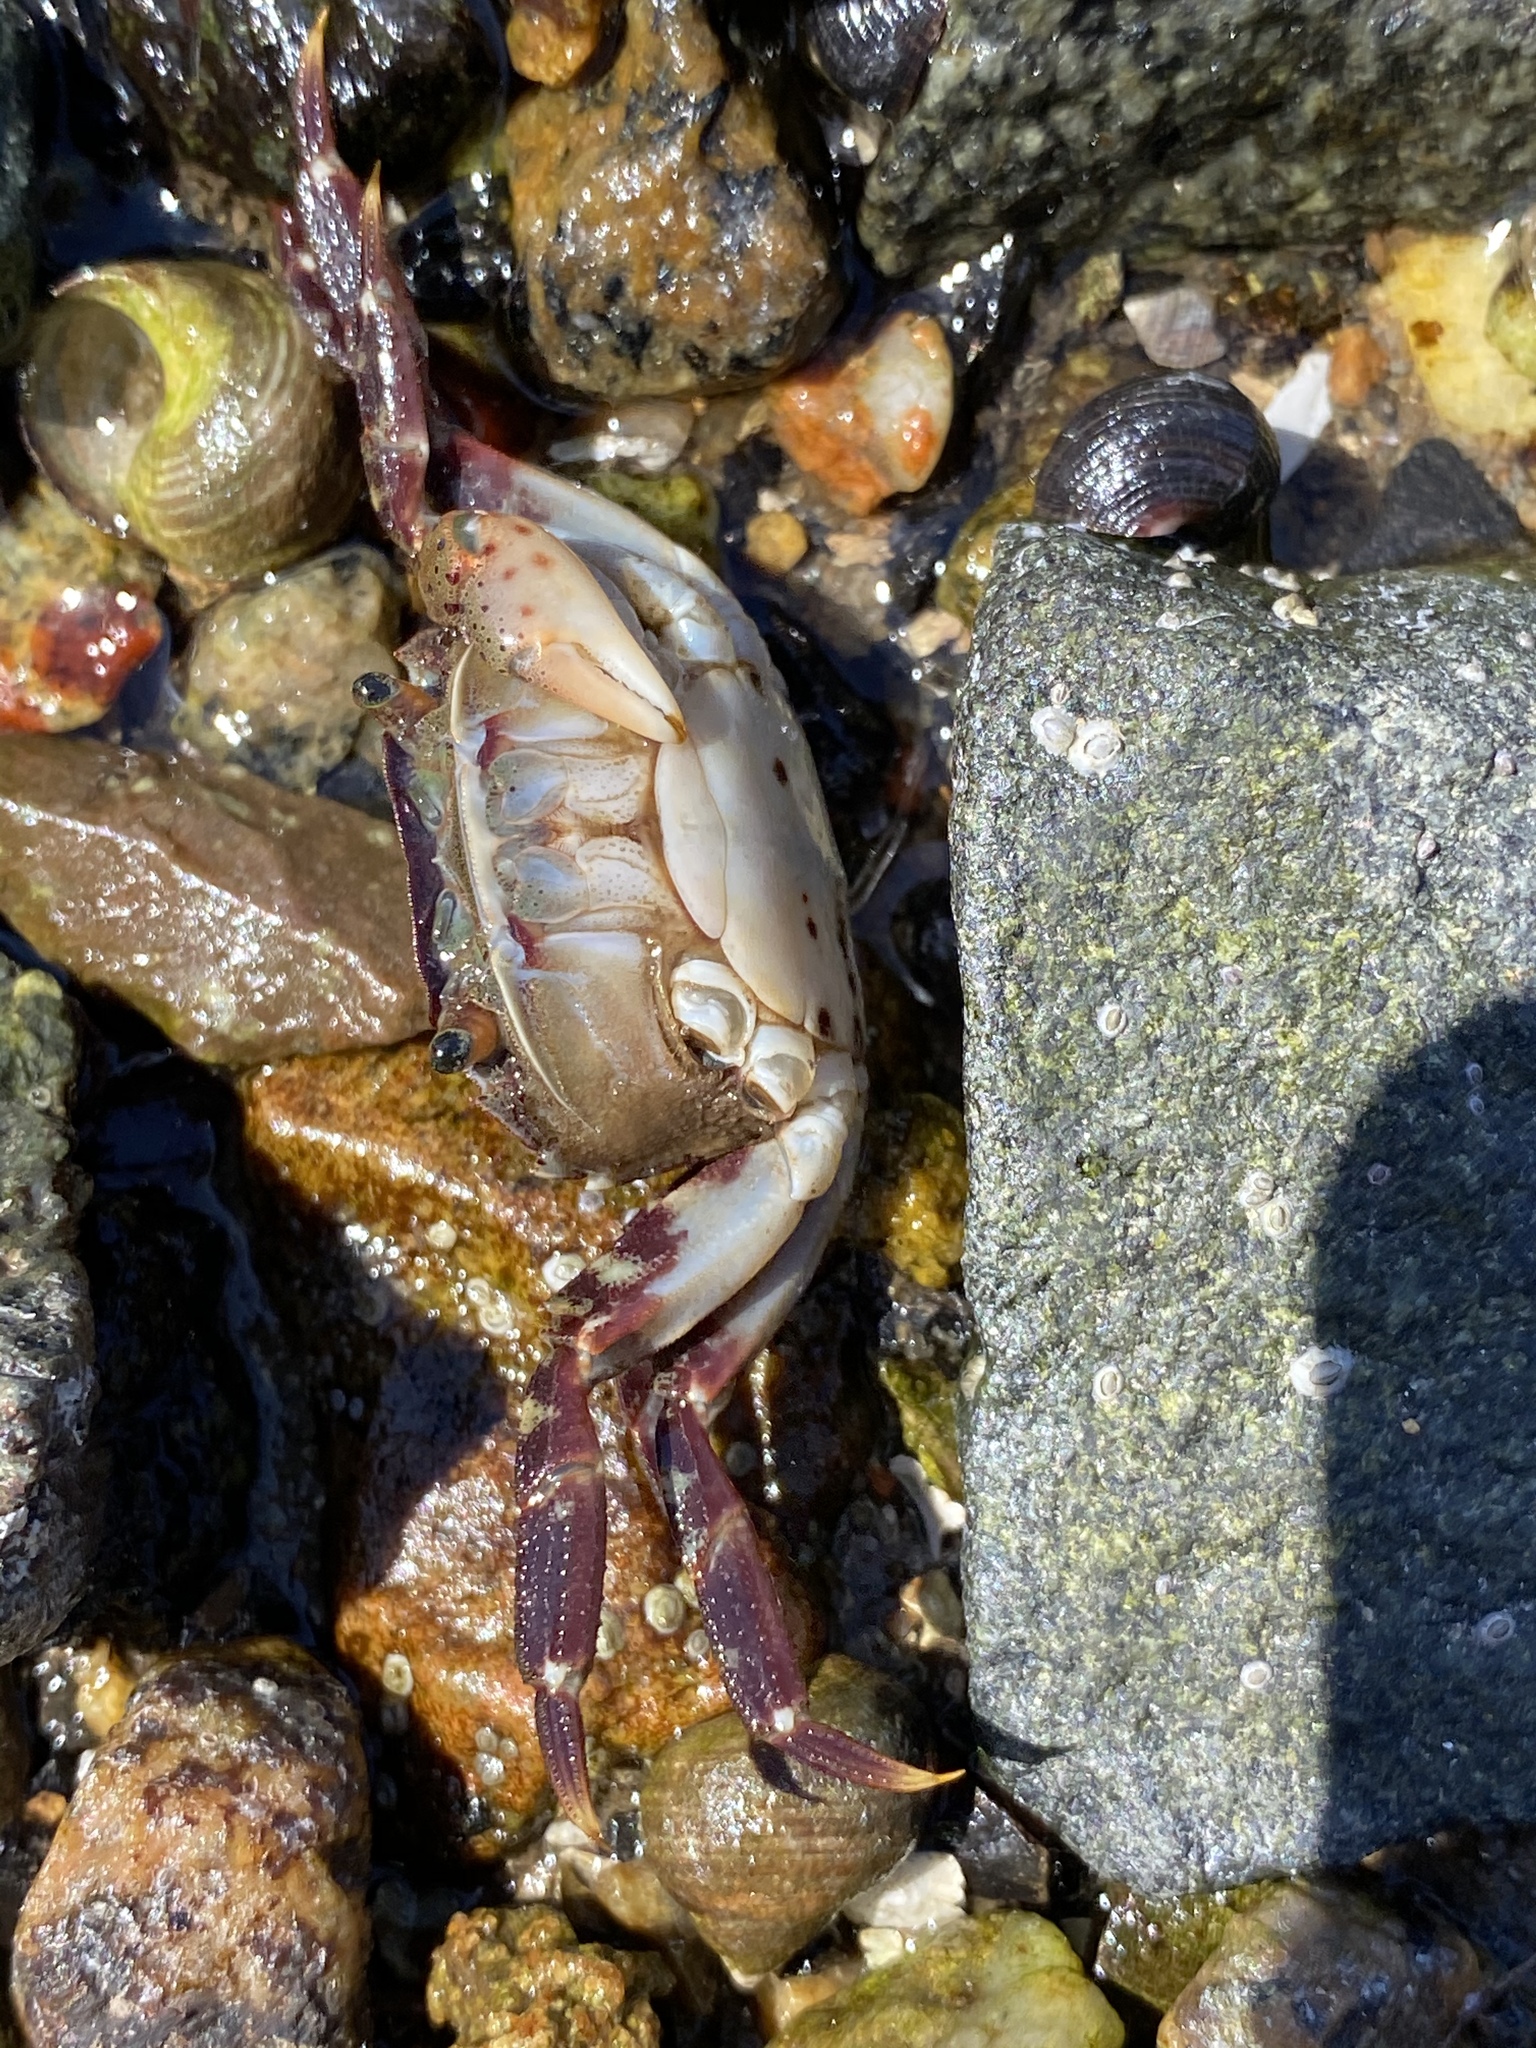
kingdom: Animalia
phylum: Arthropoda
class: Malacostraca
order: Decapoda
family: Varunidae
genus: Hemigrapsus
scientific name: Hemigrapsus sanguineus
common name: Asian shore crab
